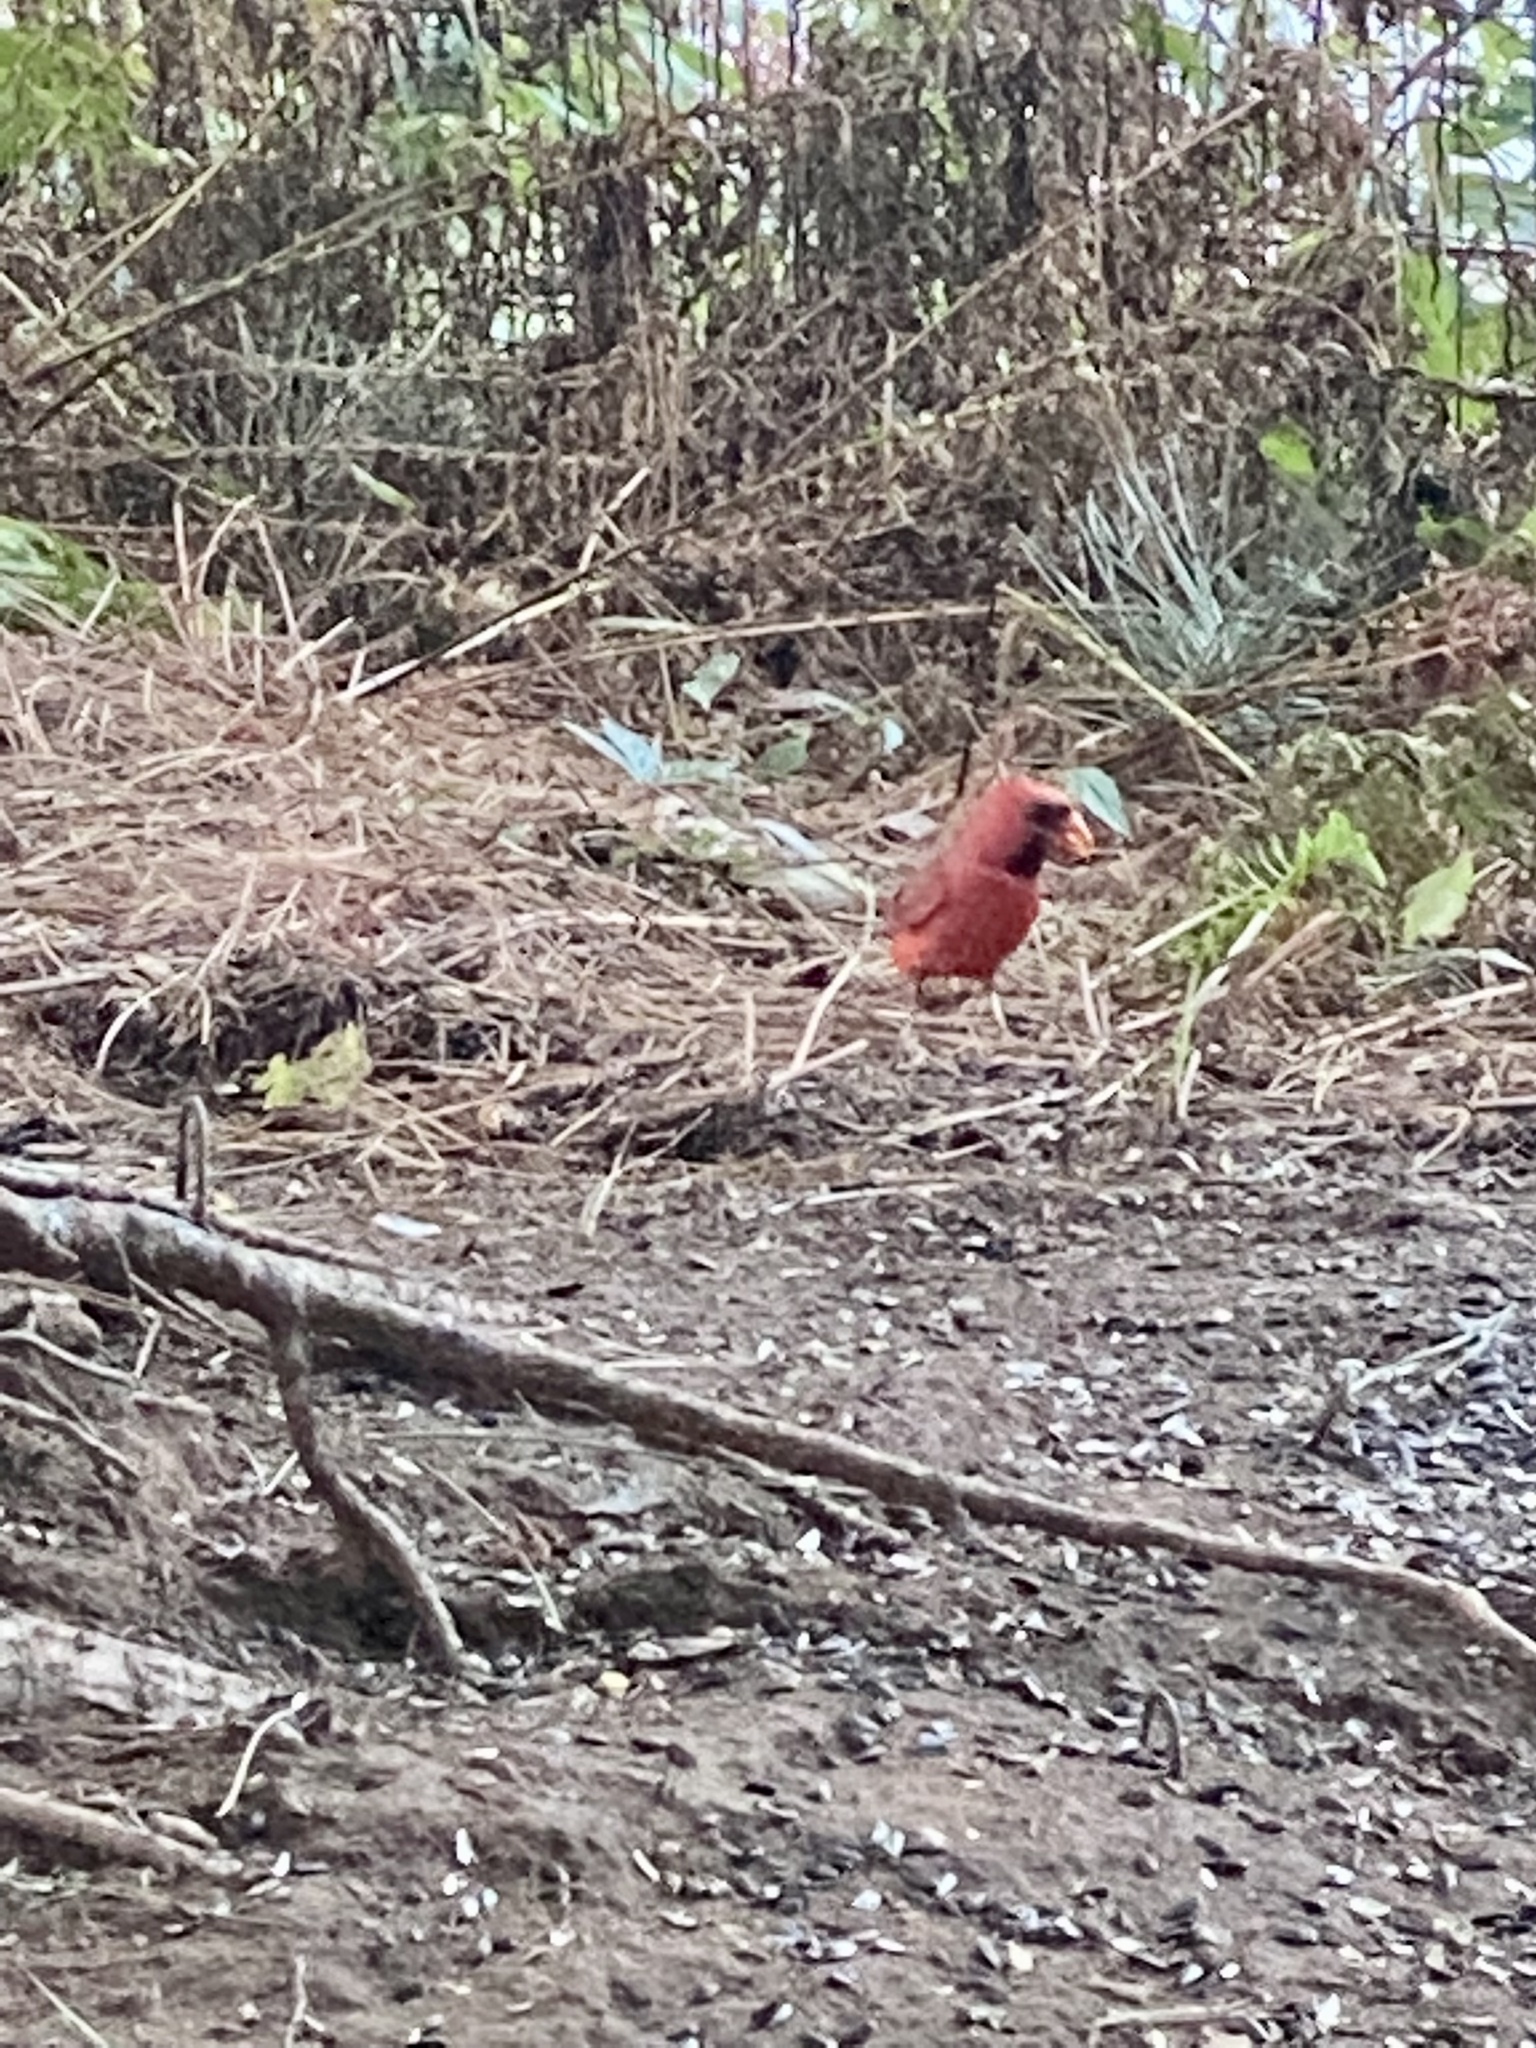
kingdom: Animalia
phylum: Chordata
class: Aves
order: Passeriformes
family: Cardinalidae
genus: Cardinalis
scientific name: Cardinalis cardinalis
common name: Northern cardinal
